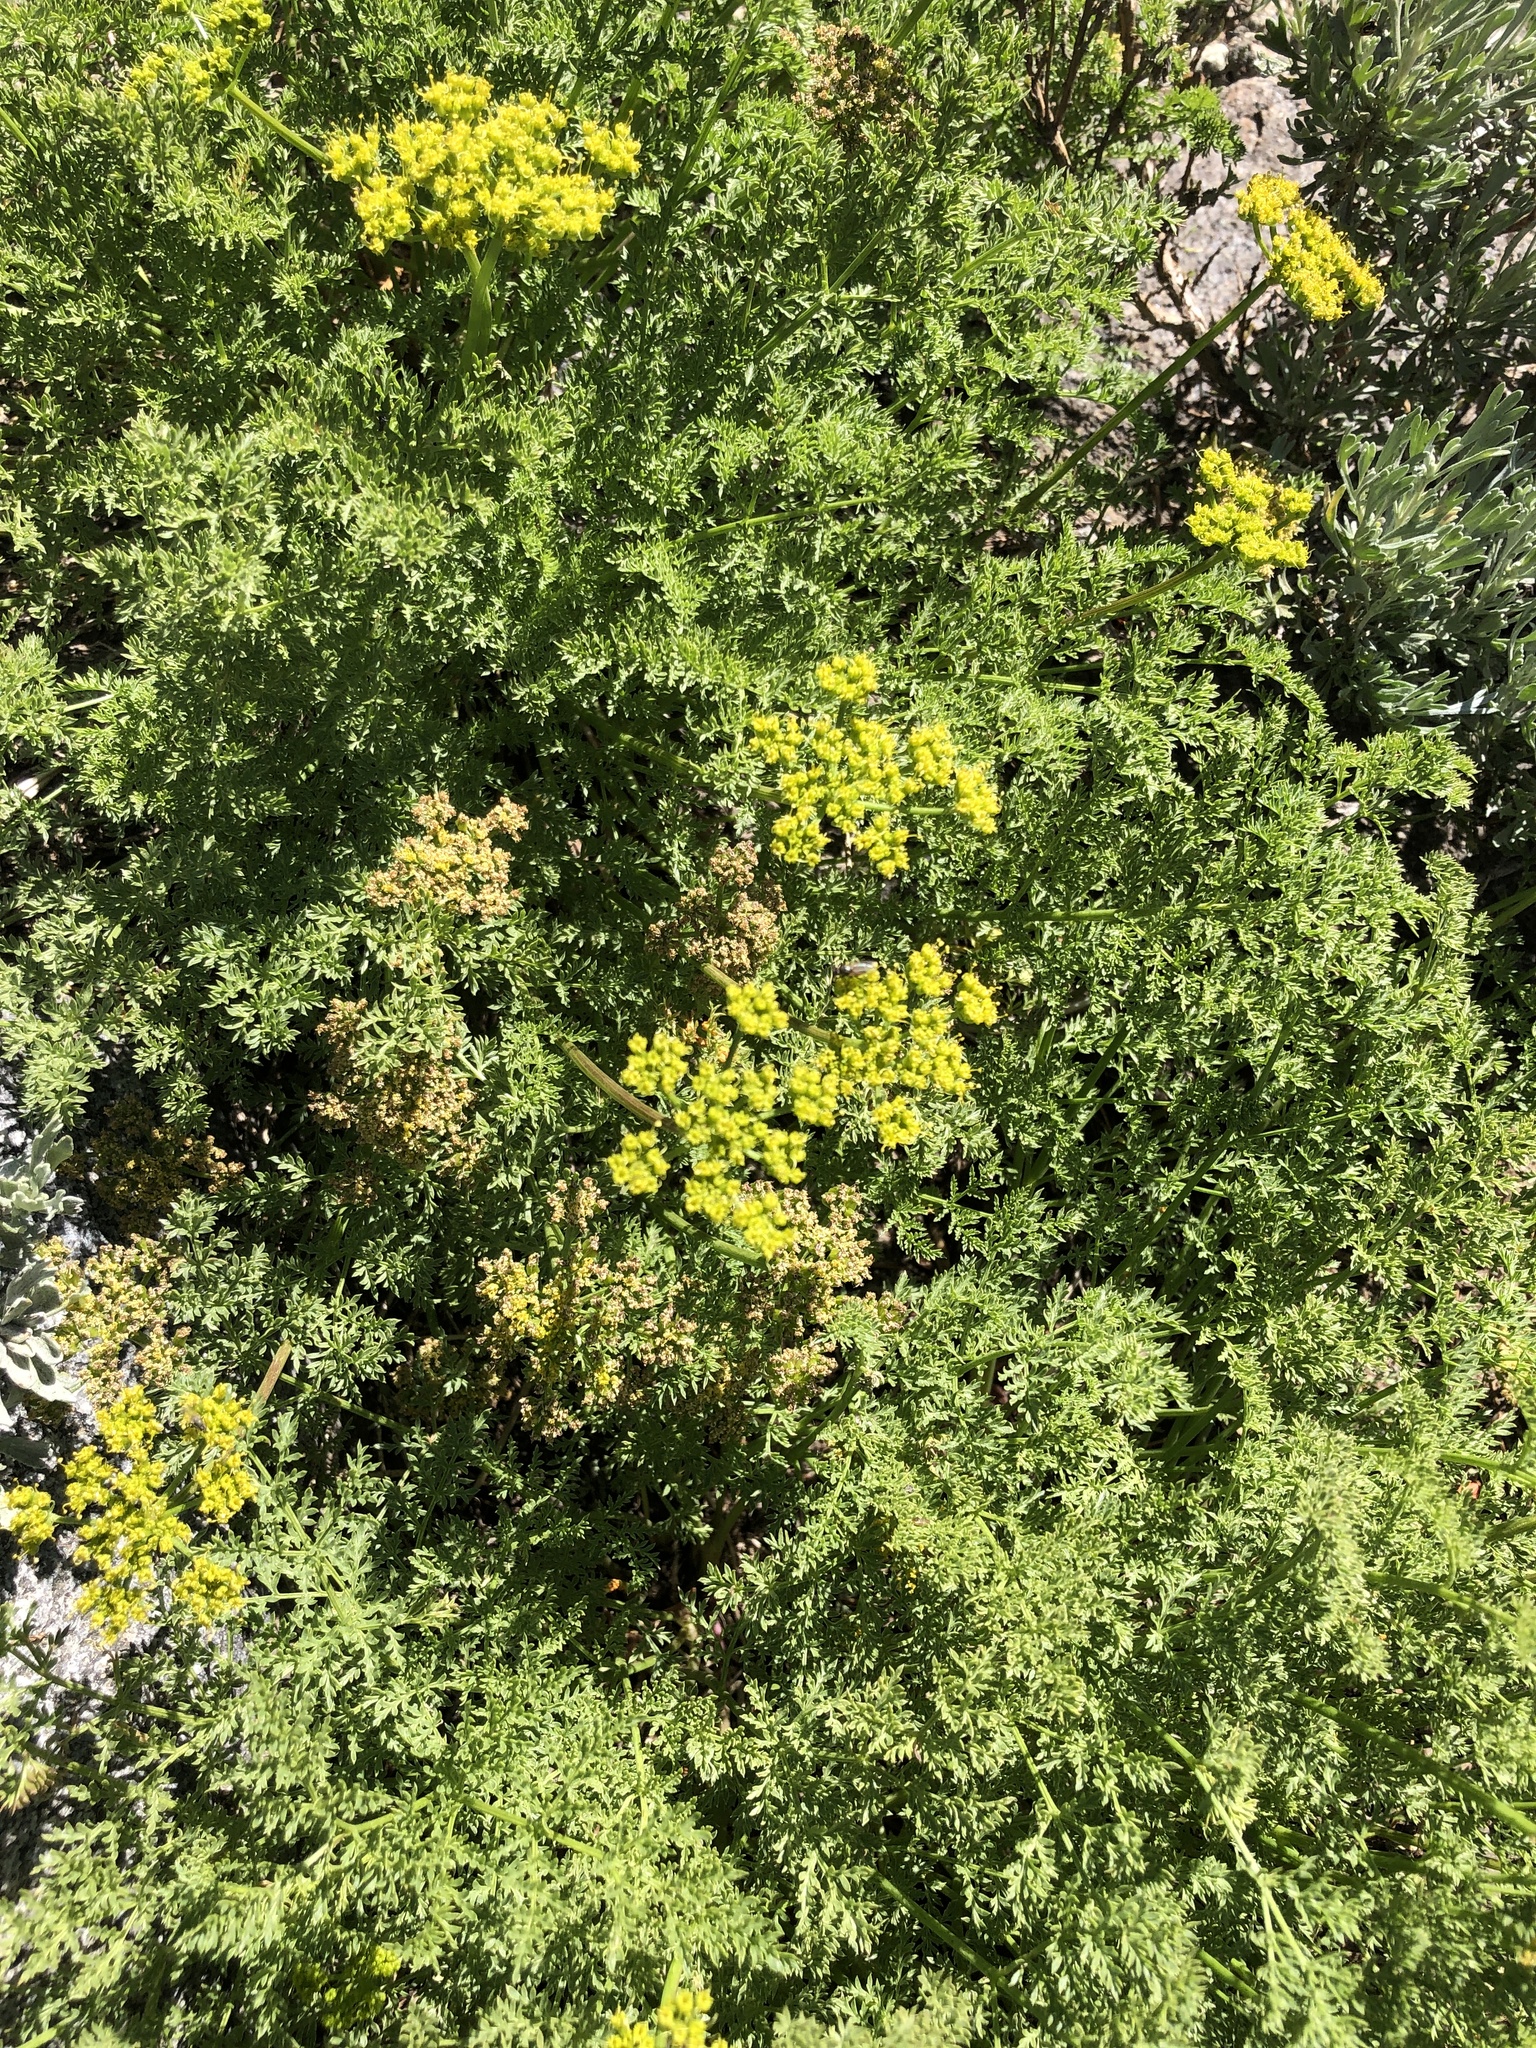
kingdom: Plantae
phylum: Tracheophyta
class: Magnoliopsida
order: Apiales
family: Apiaceae
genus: Pteryxia
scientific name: Pteryxia terebinthina
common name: Turpentine wavewing
